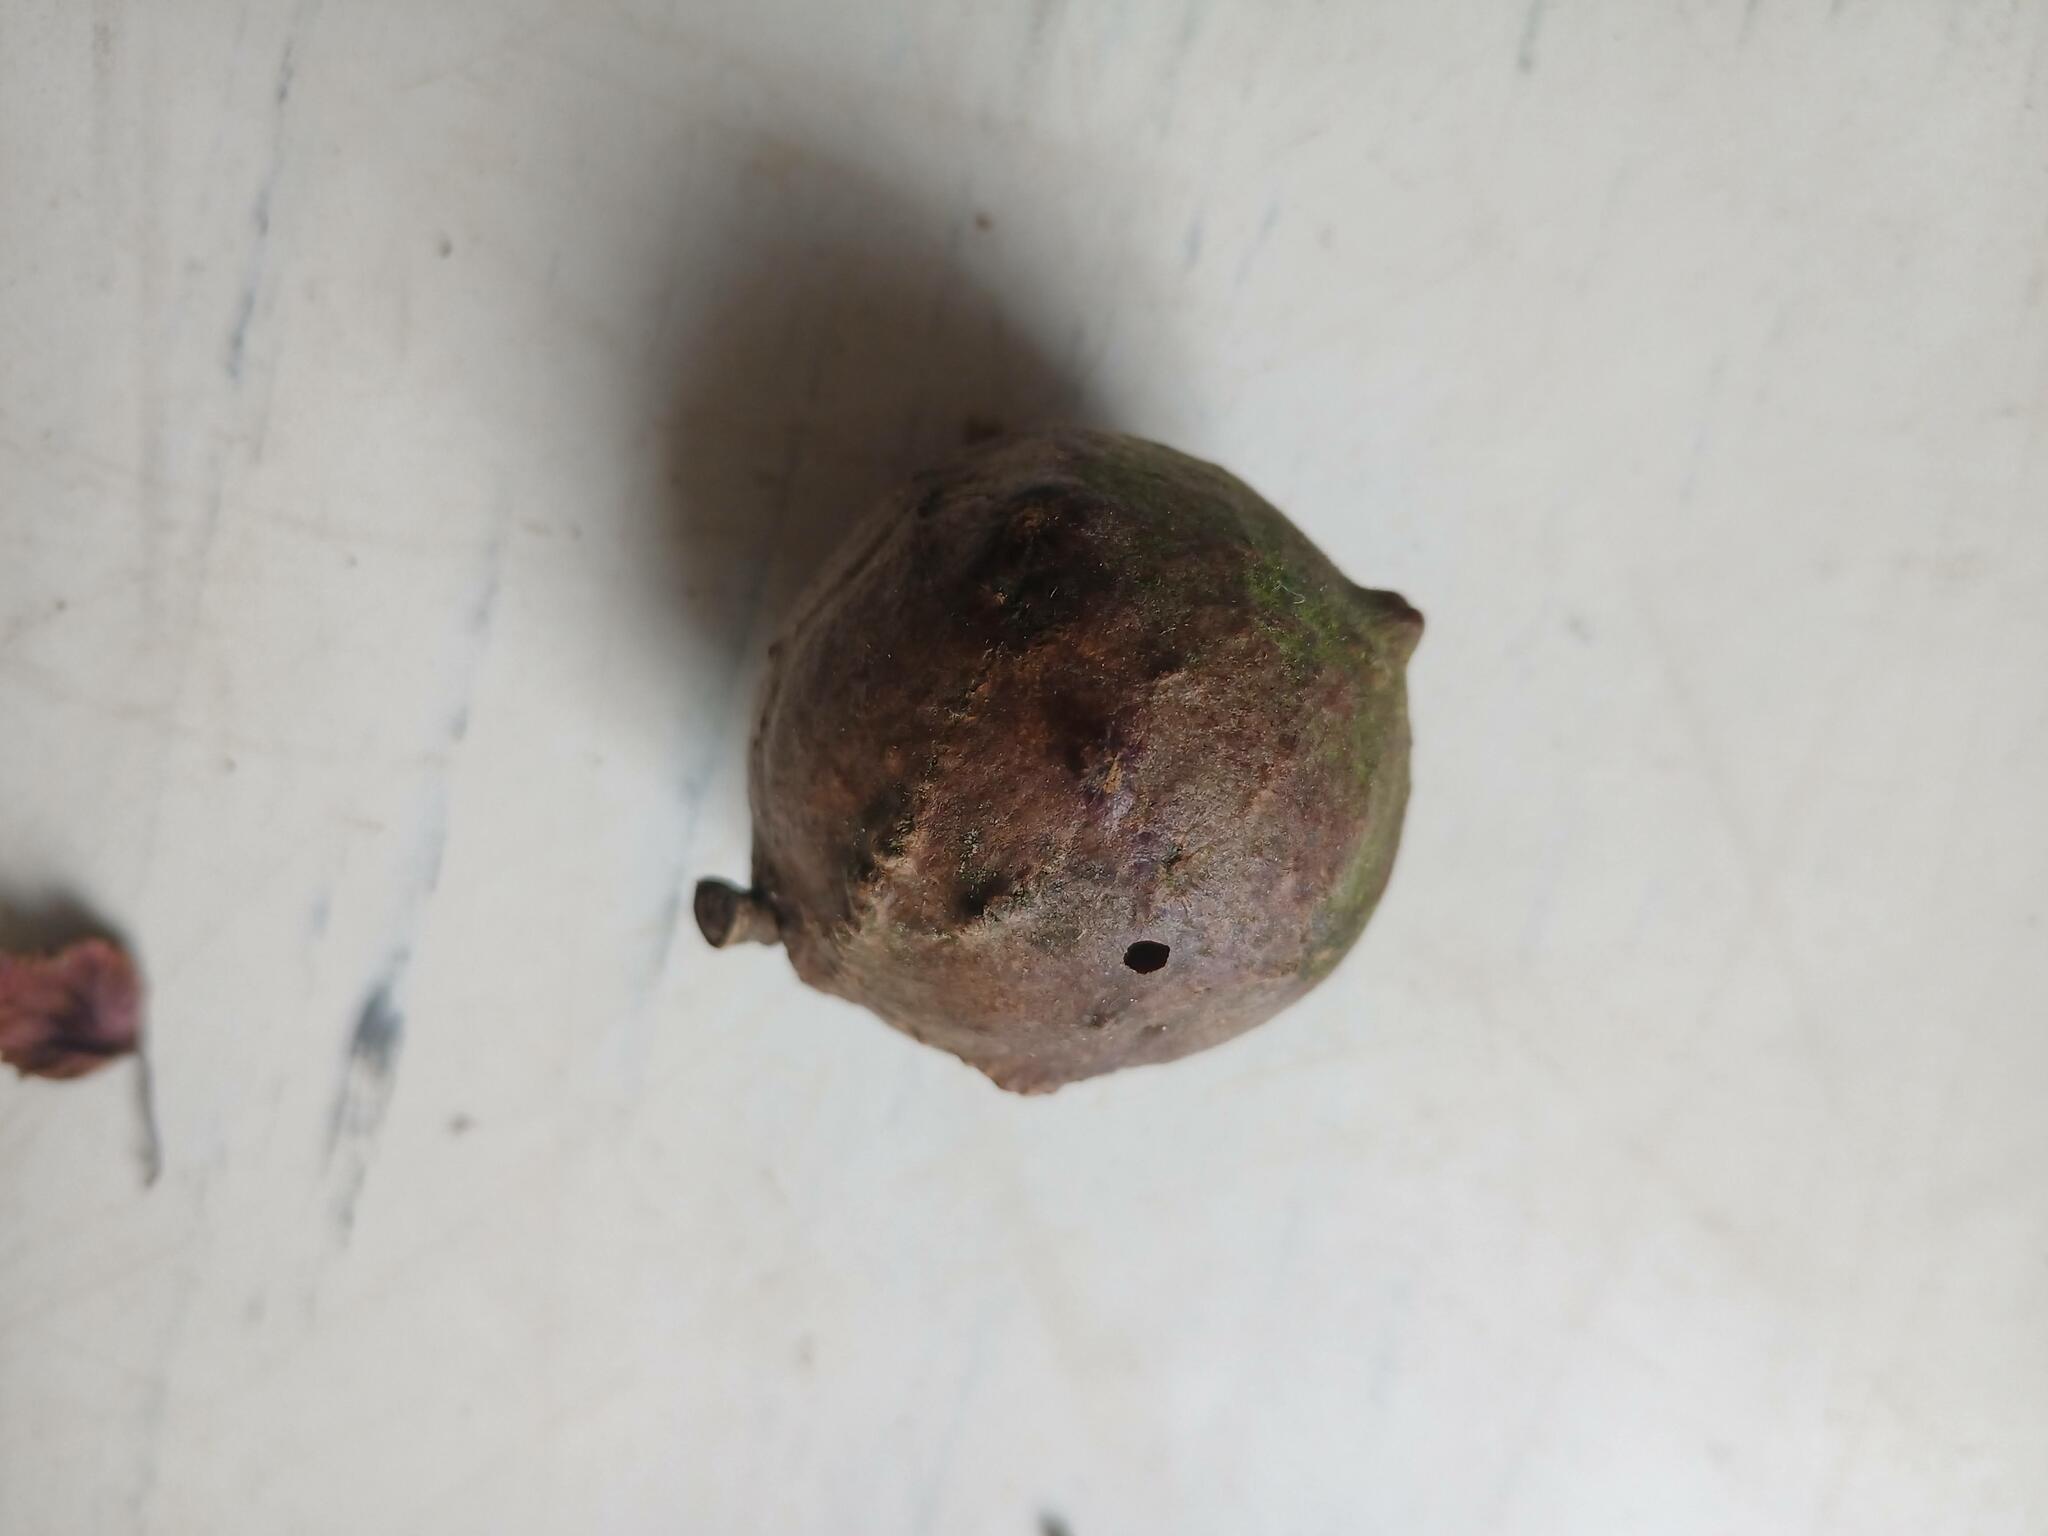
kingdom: Animalia
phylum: Arthropoda
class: Insecta
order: Hymenoptera
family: Cynipidae
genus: Andricus
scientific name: Andricus quercustozae
